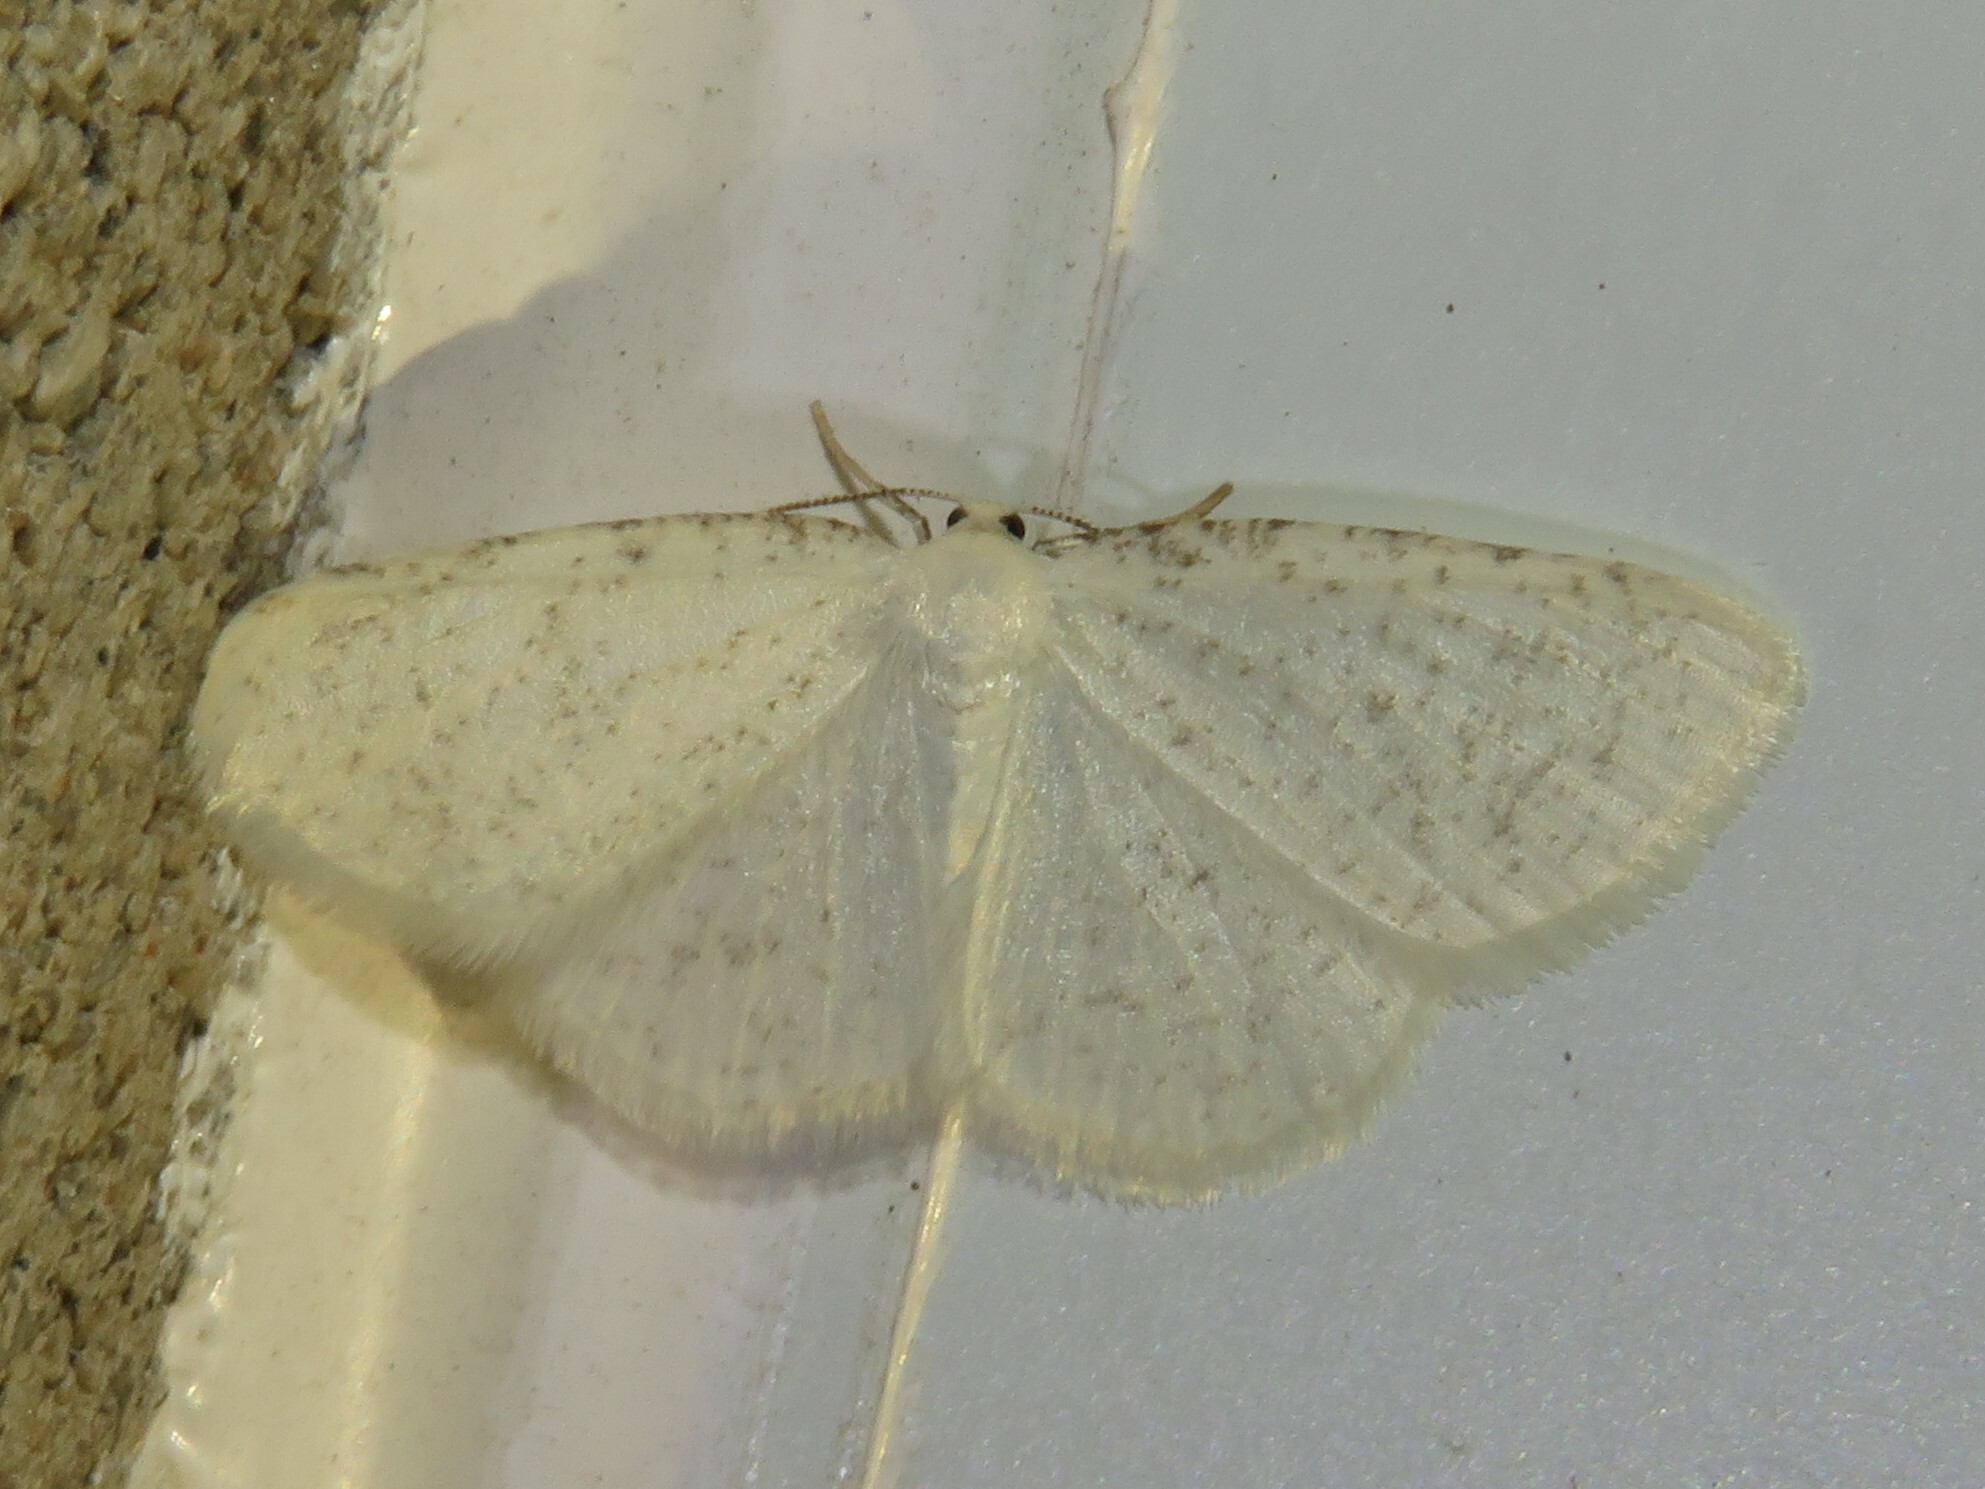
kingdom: Animalia
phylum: Arthropoda
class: Insecta
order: Lepidoptera
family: Geometridae
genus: Protitame
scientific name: Protitame virginalis
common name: Virgin moth
